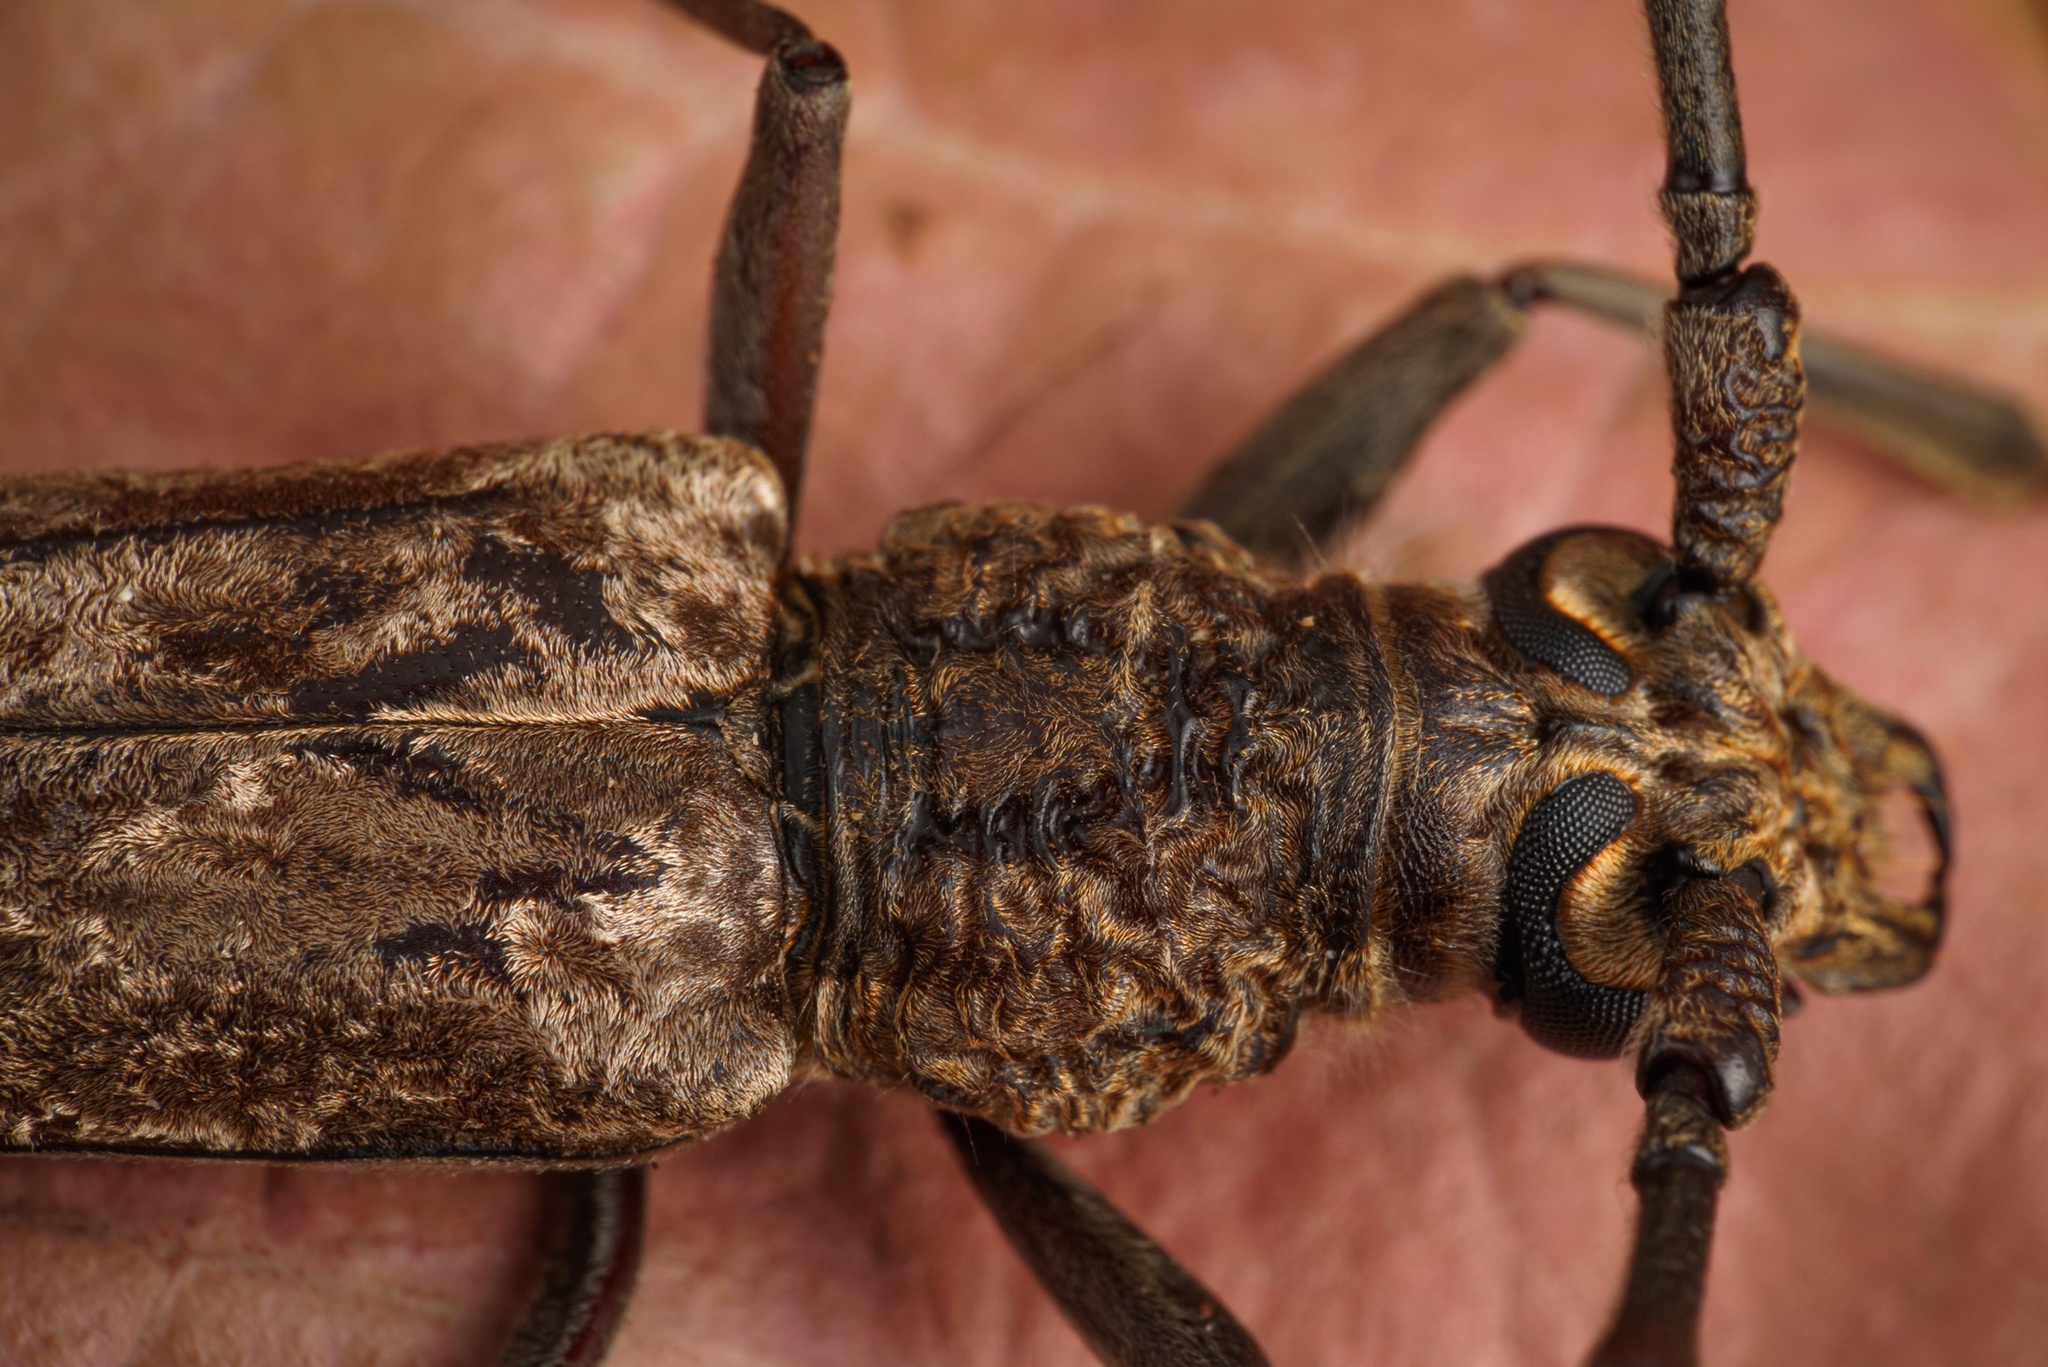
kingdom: Animalia
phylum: Arthropoda
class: Insecta
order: Coleoptera
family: Cerambycidae
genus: Aeolesthes
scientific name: Aeolesthes induta
